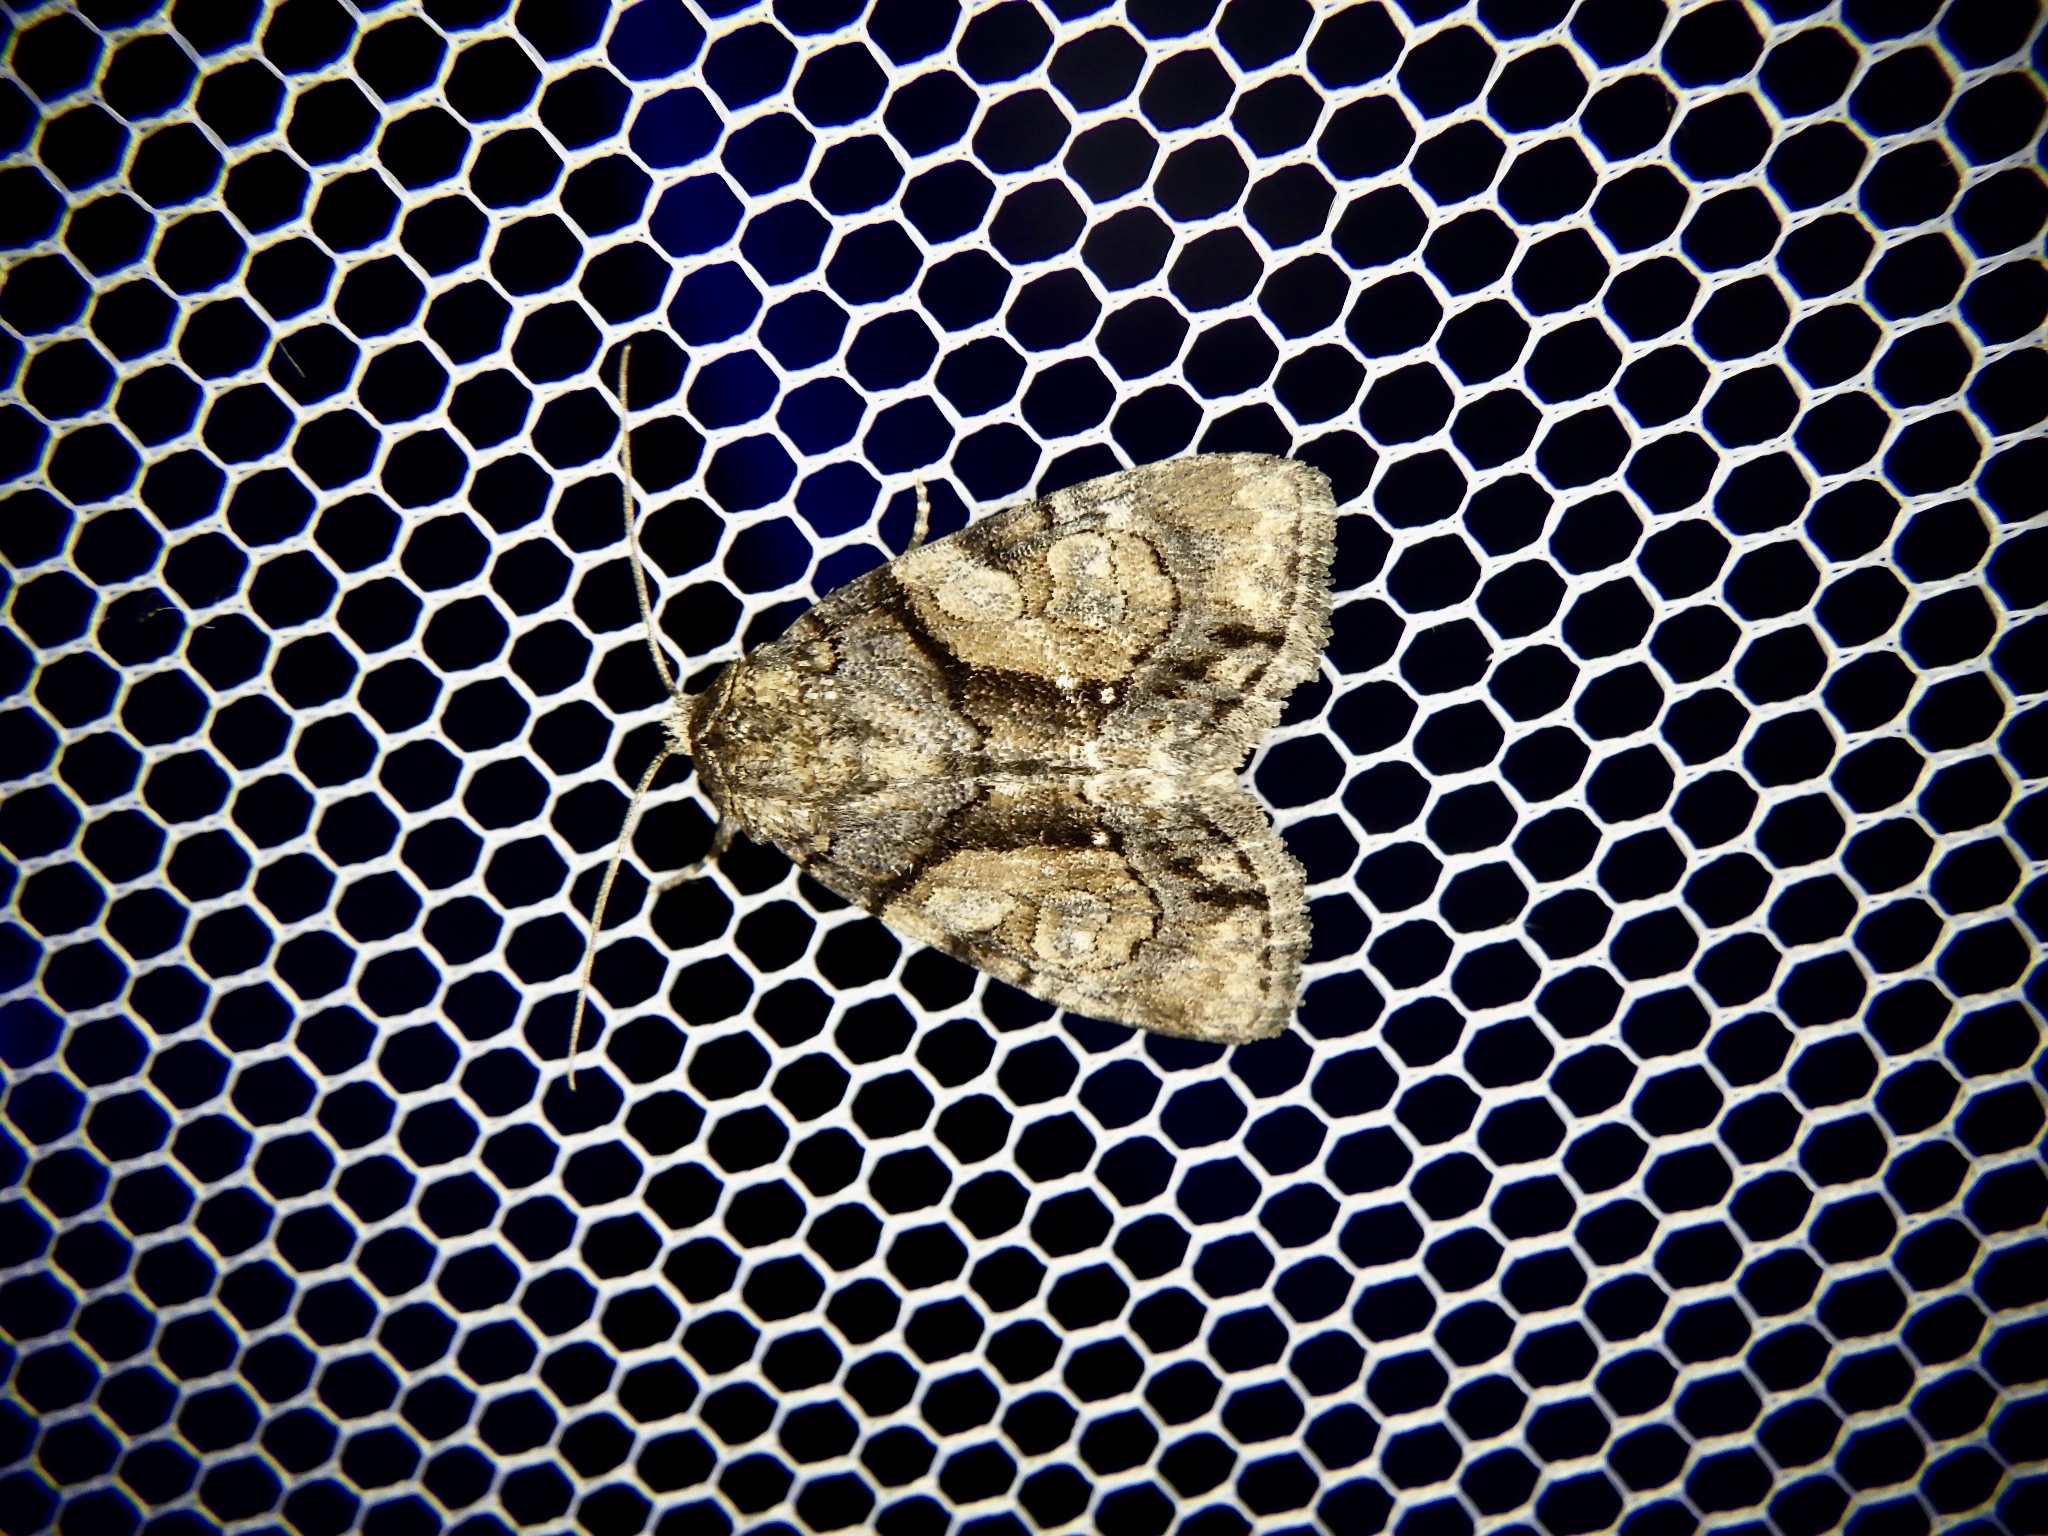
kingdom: Animalia
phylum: Arthropoda
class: Insecta
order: Lepidoptera
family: Noctuidae
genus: Chytonix
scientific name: Chytonix albonotata
